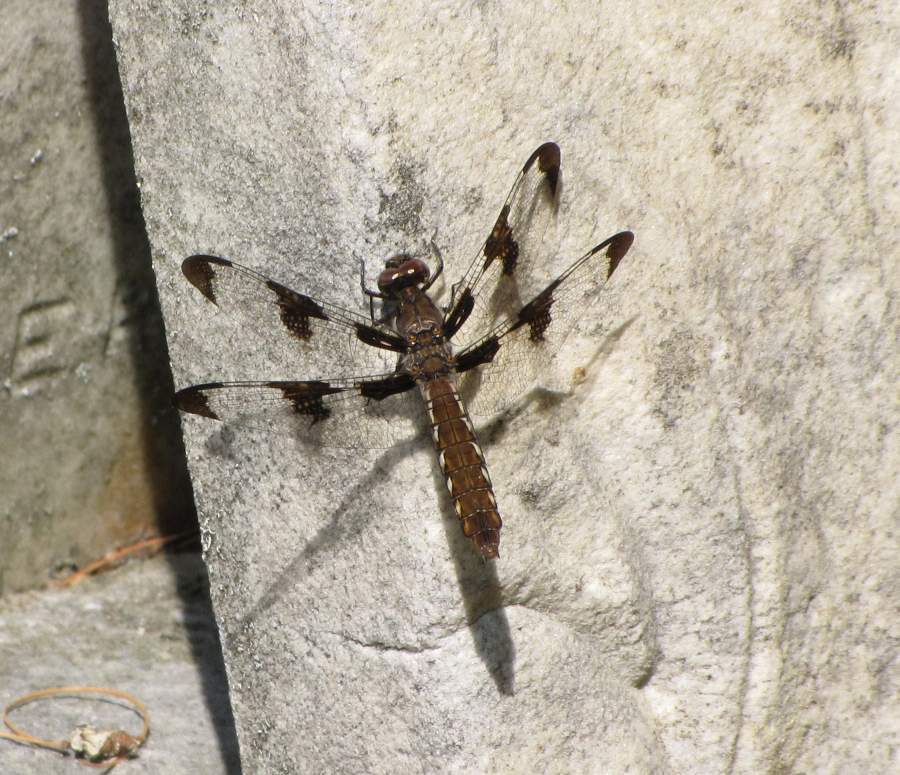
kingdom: Animalia
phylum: Arthropoda
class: Insecta
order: Odonata
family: Libellulidae
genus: Plathemis
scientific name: Plathemis lydia
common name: Common whitetail
